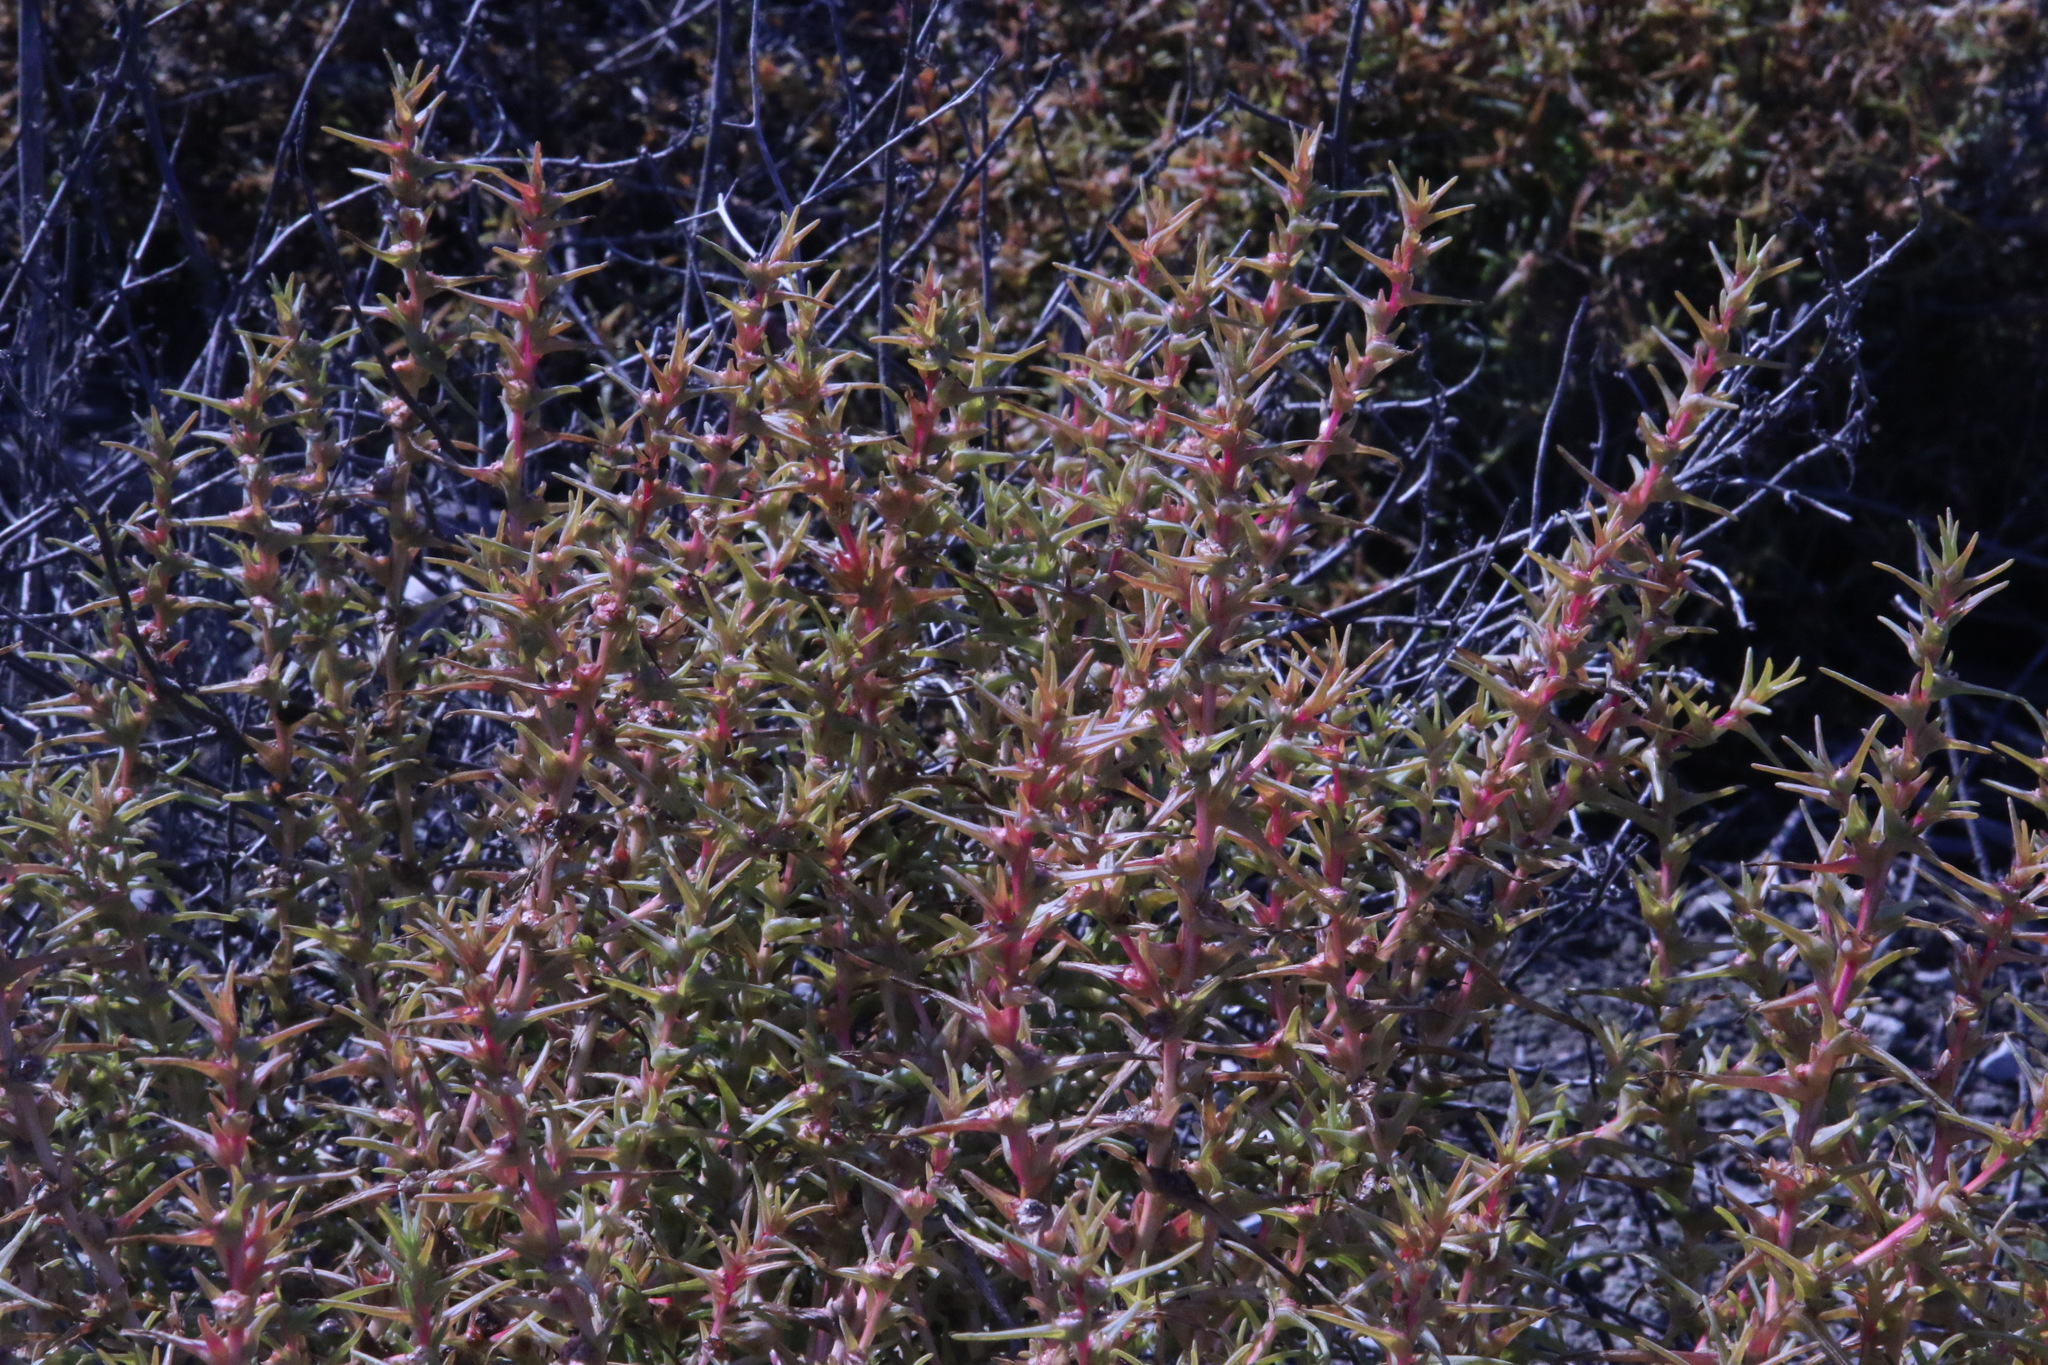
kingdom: Plantae
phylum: Tracheophyta
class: Magnoliopsida
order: Caryophyllales
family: Amaranthaceae
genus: Salsola
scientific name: Salsola soda
